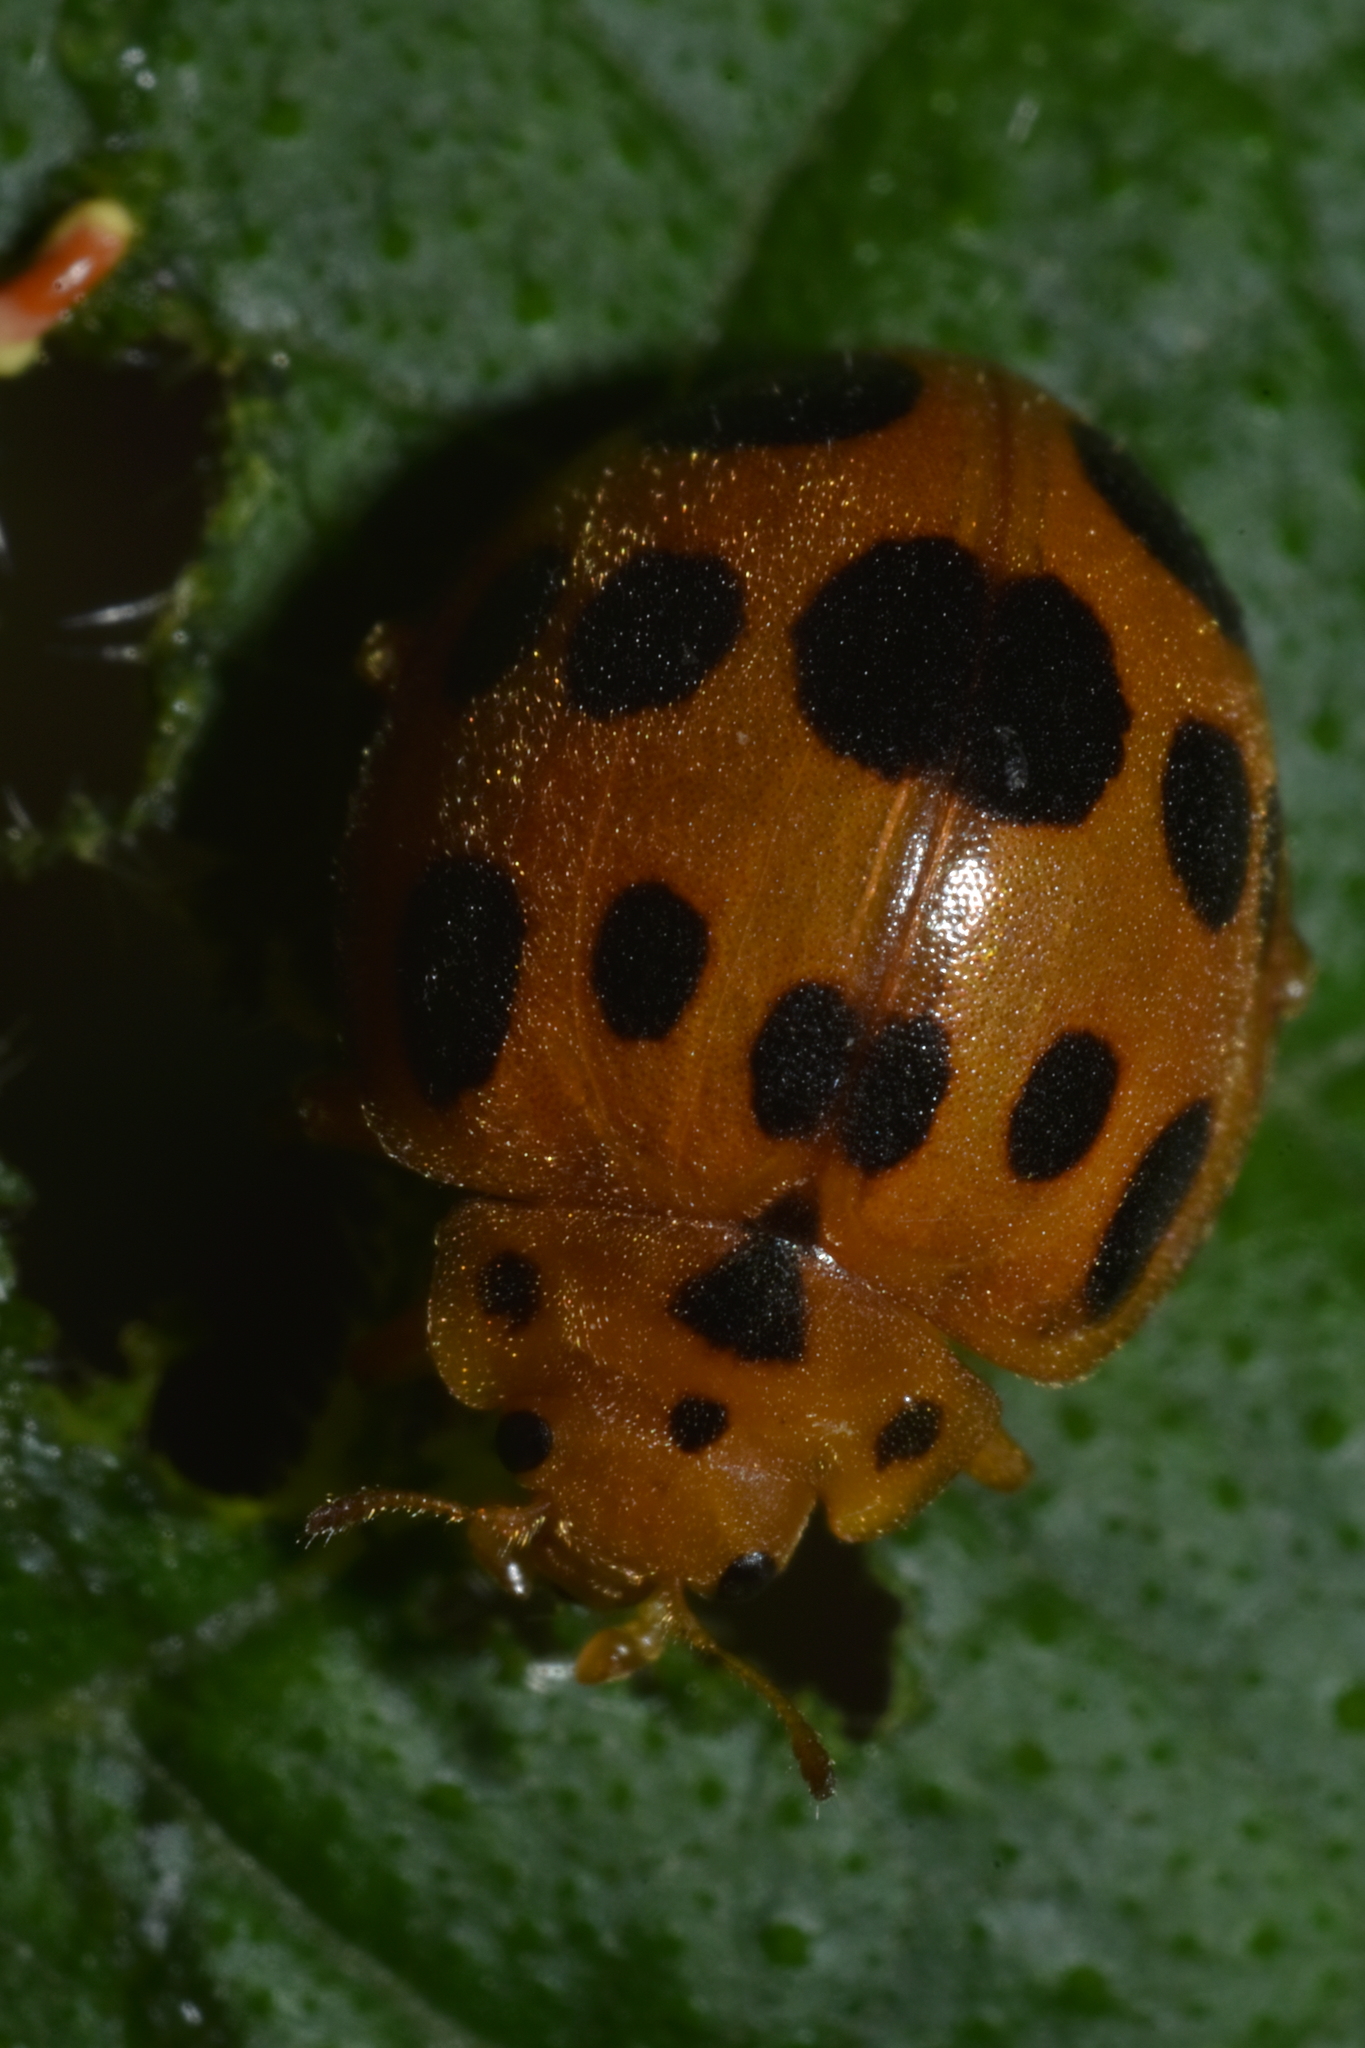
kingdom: Animalia
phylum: Arthropoda
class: Insecta
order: Coleoptera
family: Coccinellidae
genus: Epilachna
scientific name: Epilachna borealis
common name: Squash beetle
